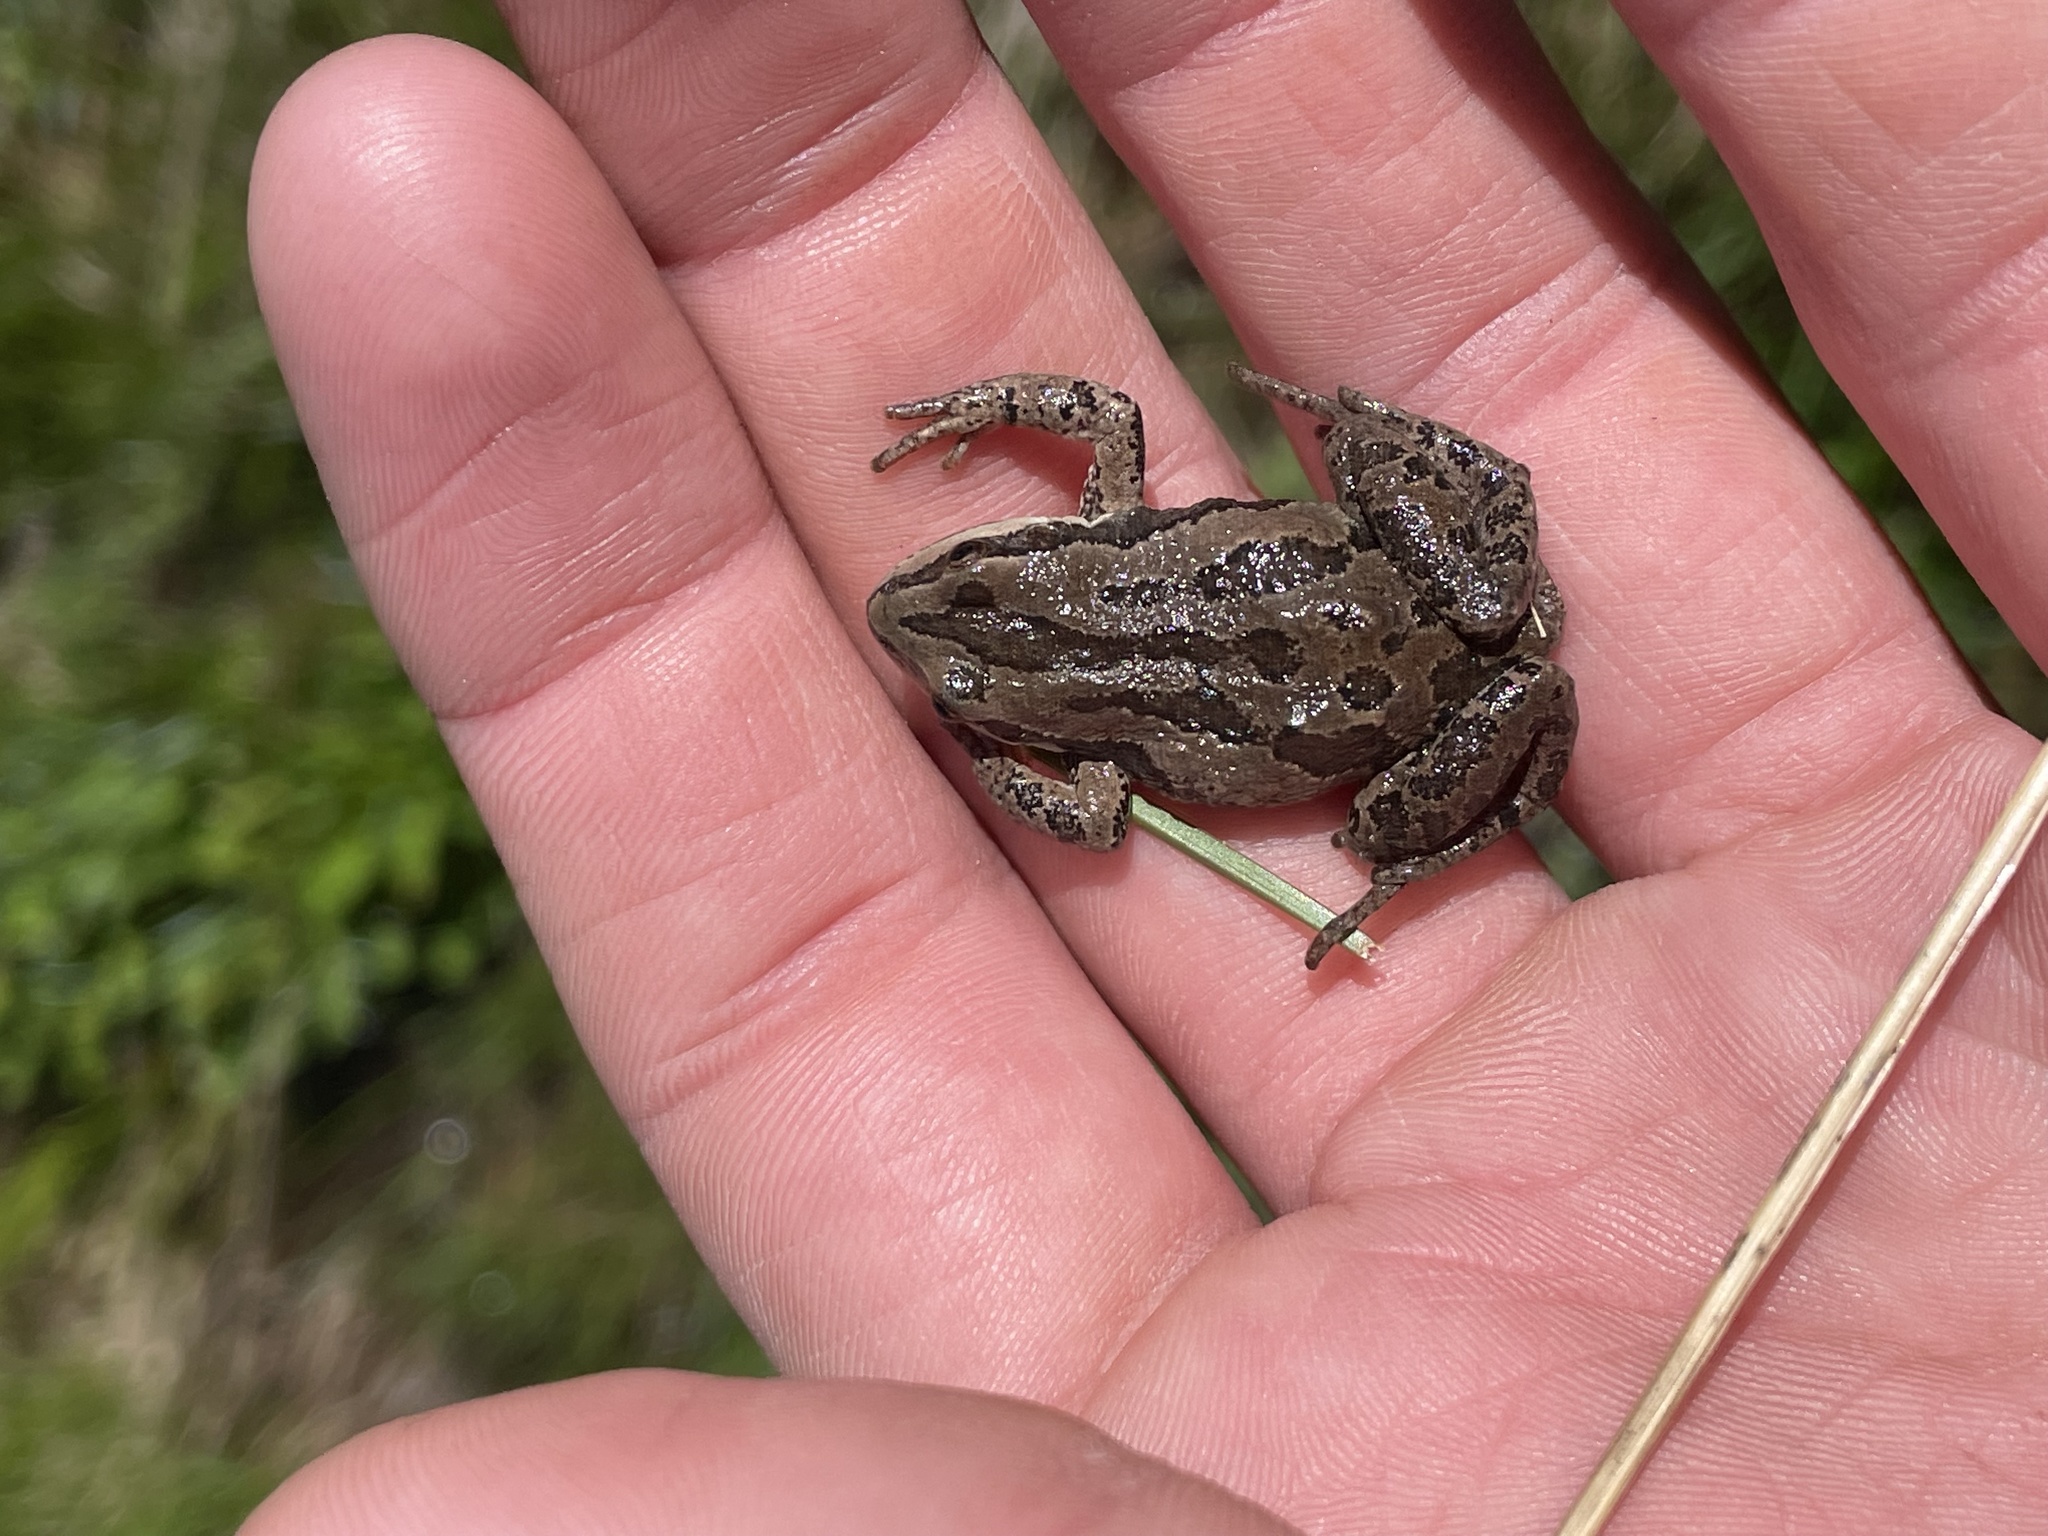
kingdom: Animalia
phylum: Chordata
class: Amphibia
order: Anura
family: Hylidae
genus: Pseudacris
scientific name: Pseudacris maculata
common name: Boreal chorus frog
